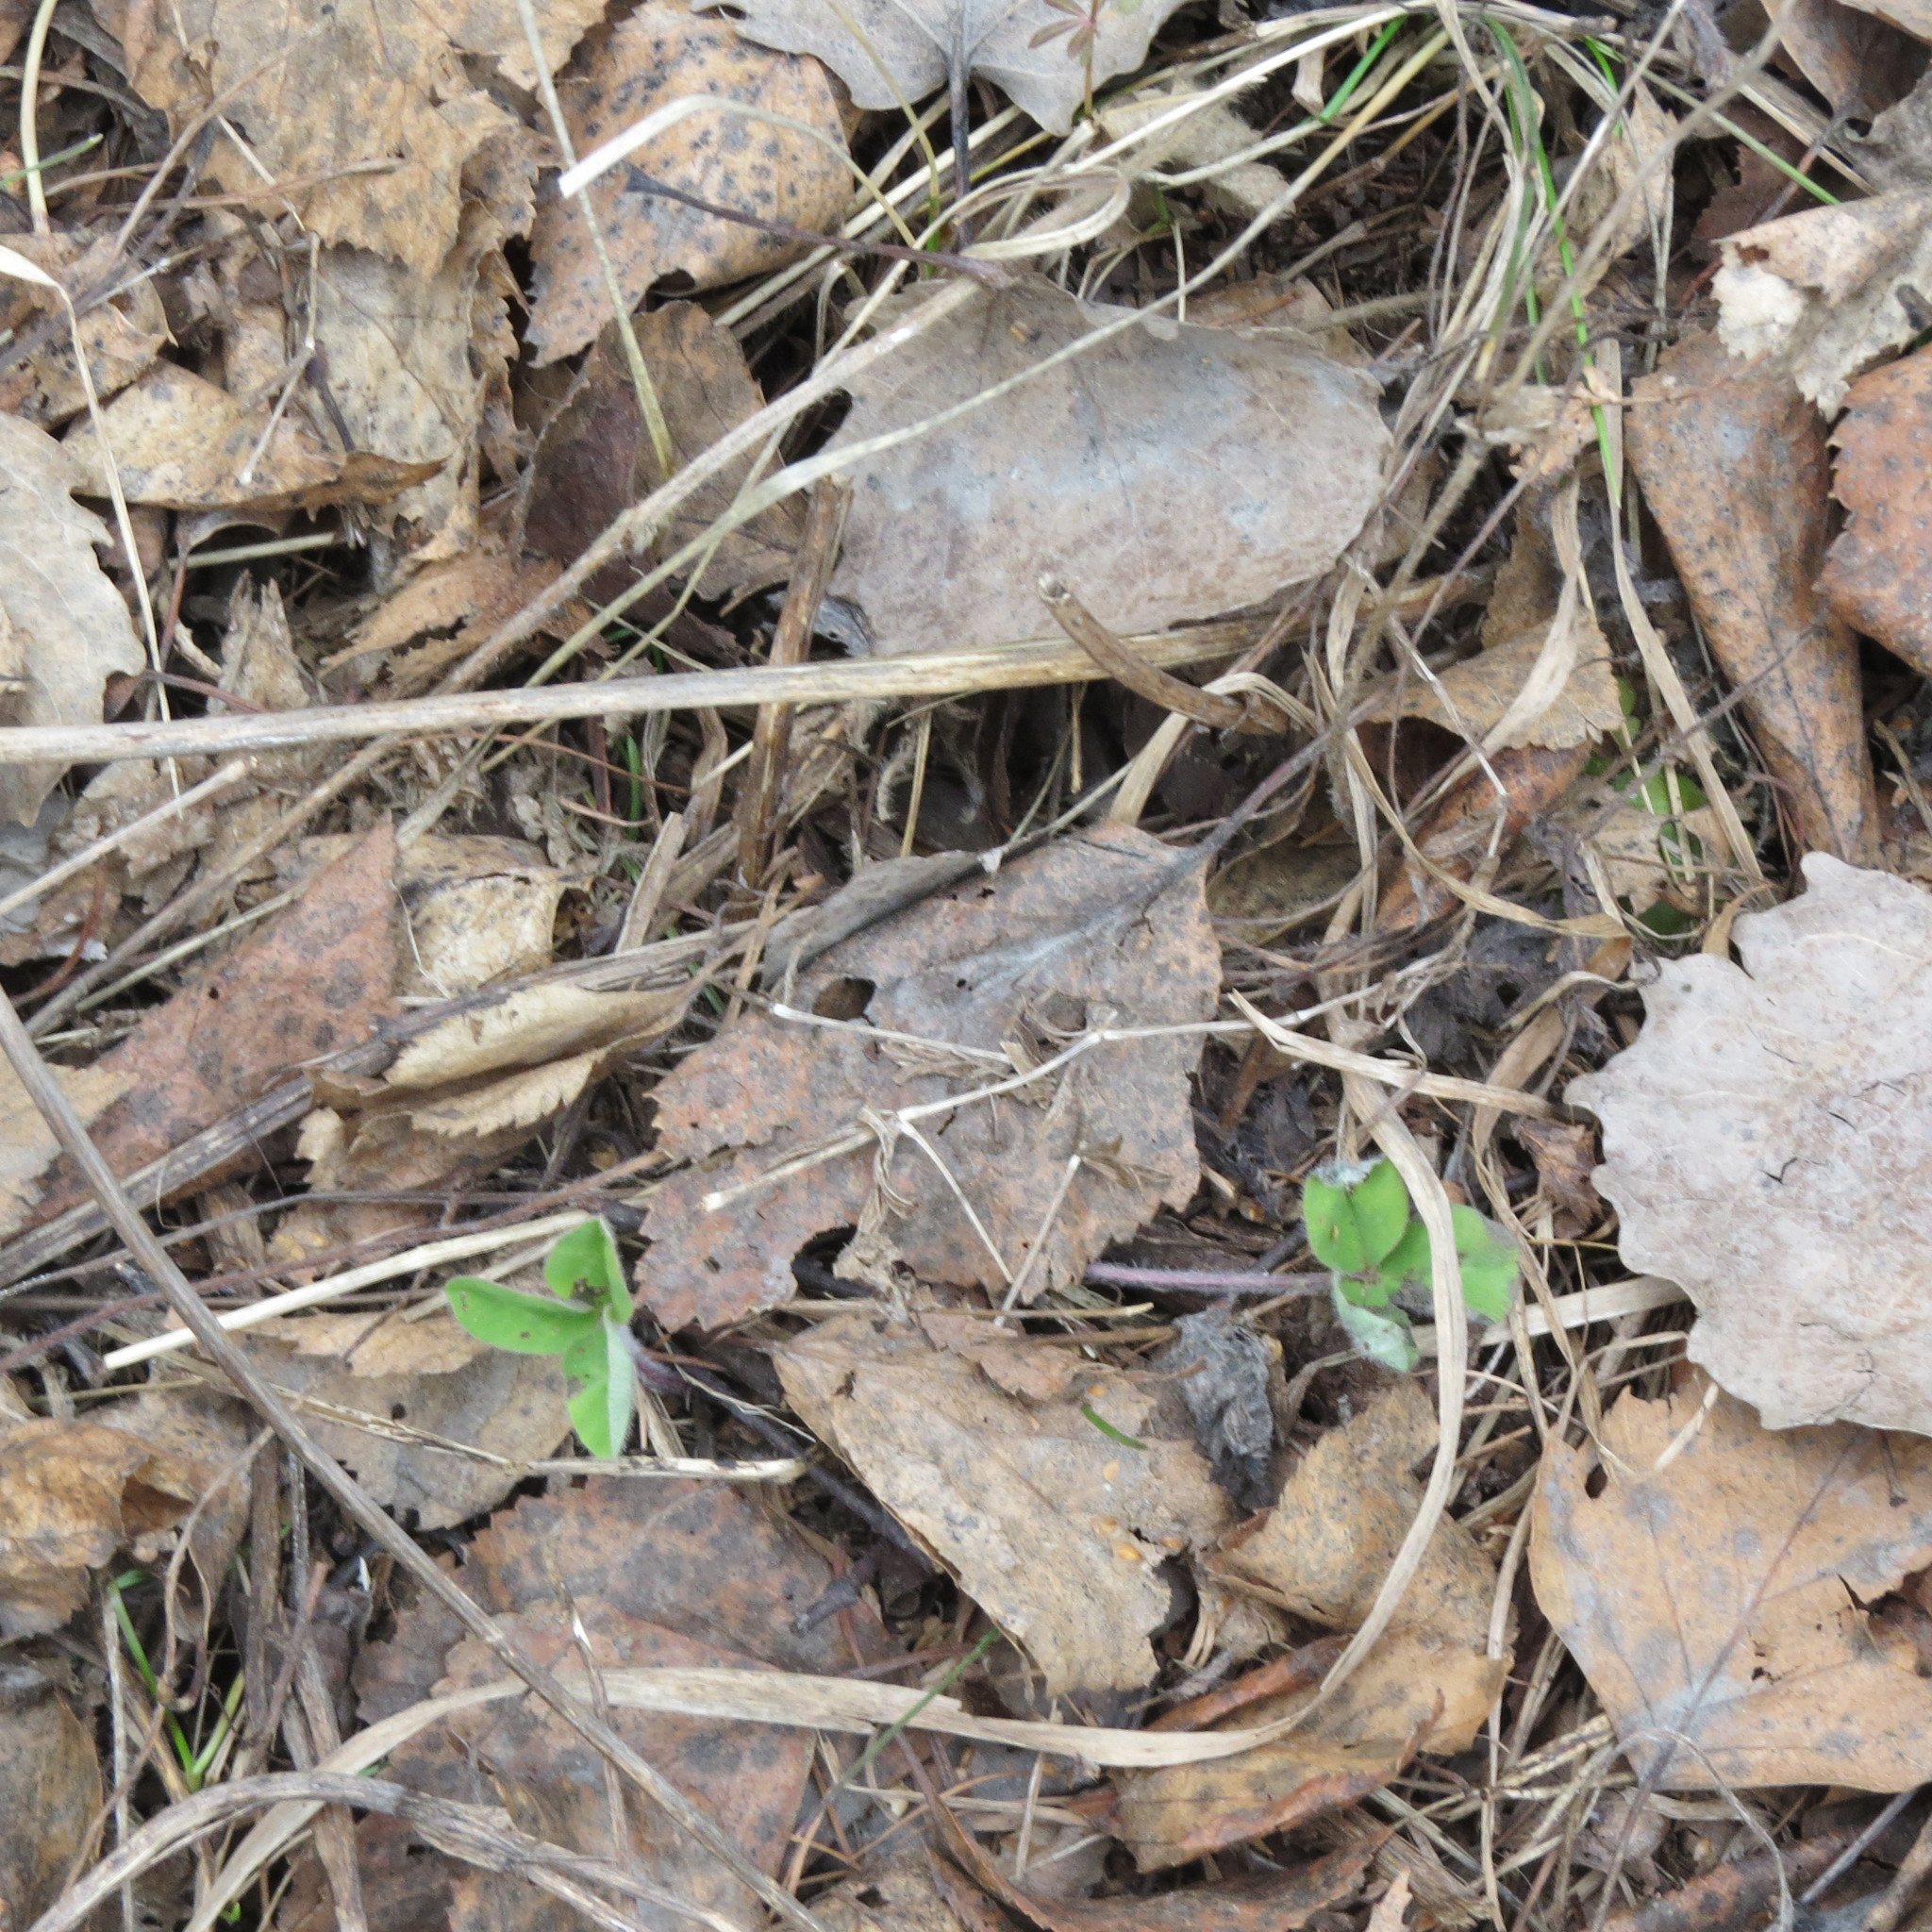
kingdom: Plantae
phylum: Tracheophyta
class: Magnoliopsida
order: Fabales
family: Fabaceae
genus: Trifolium
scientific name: Trifolium
